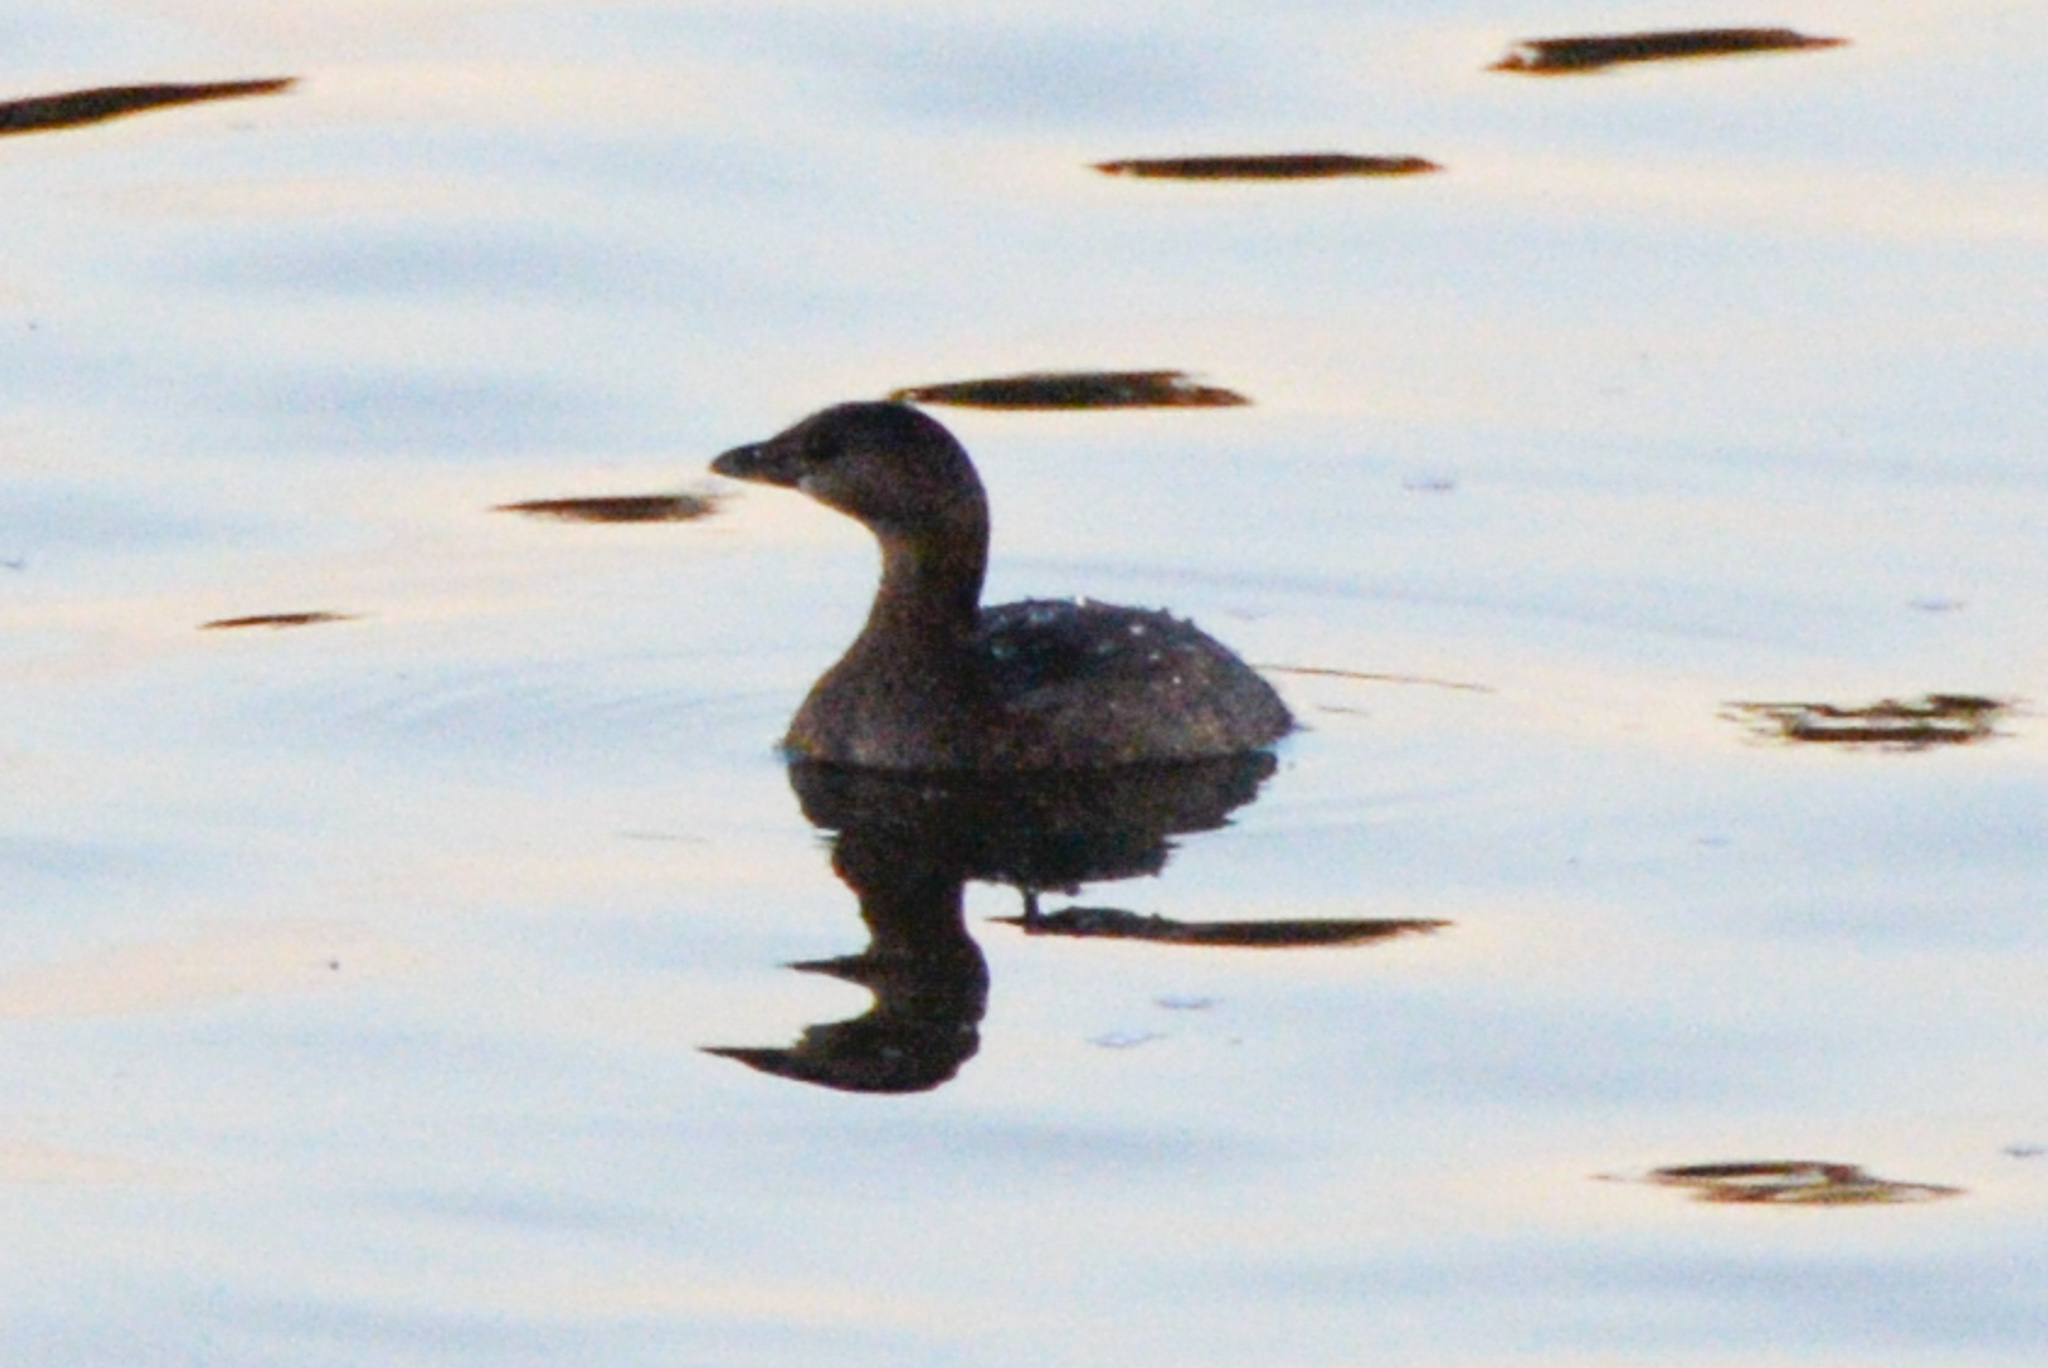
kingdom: Animalia
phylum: Chordata
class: Aves
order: Podicipediformes
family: Podicipedidae
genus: Podilymbus
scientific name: Podilymbus podiceps
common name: Pied-billed grebe
